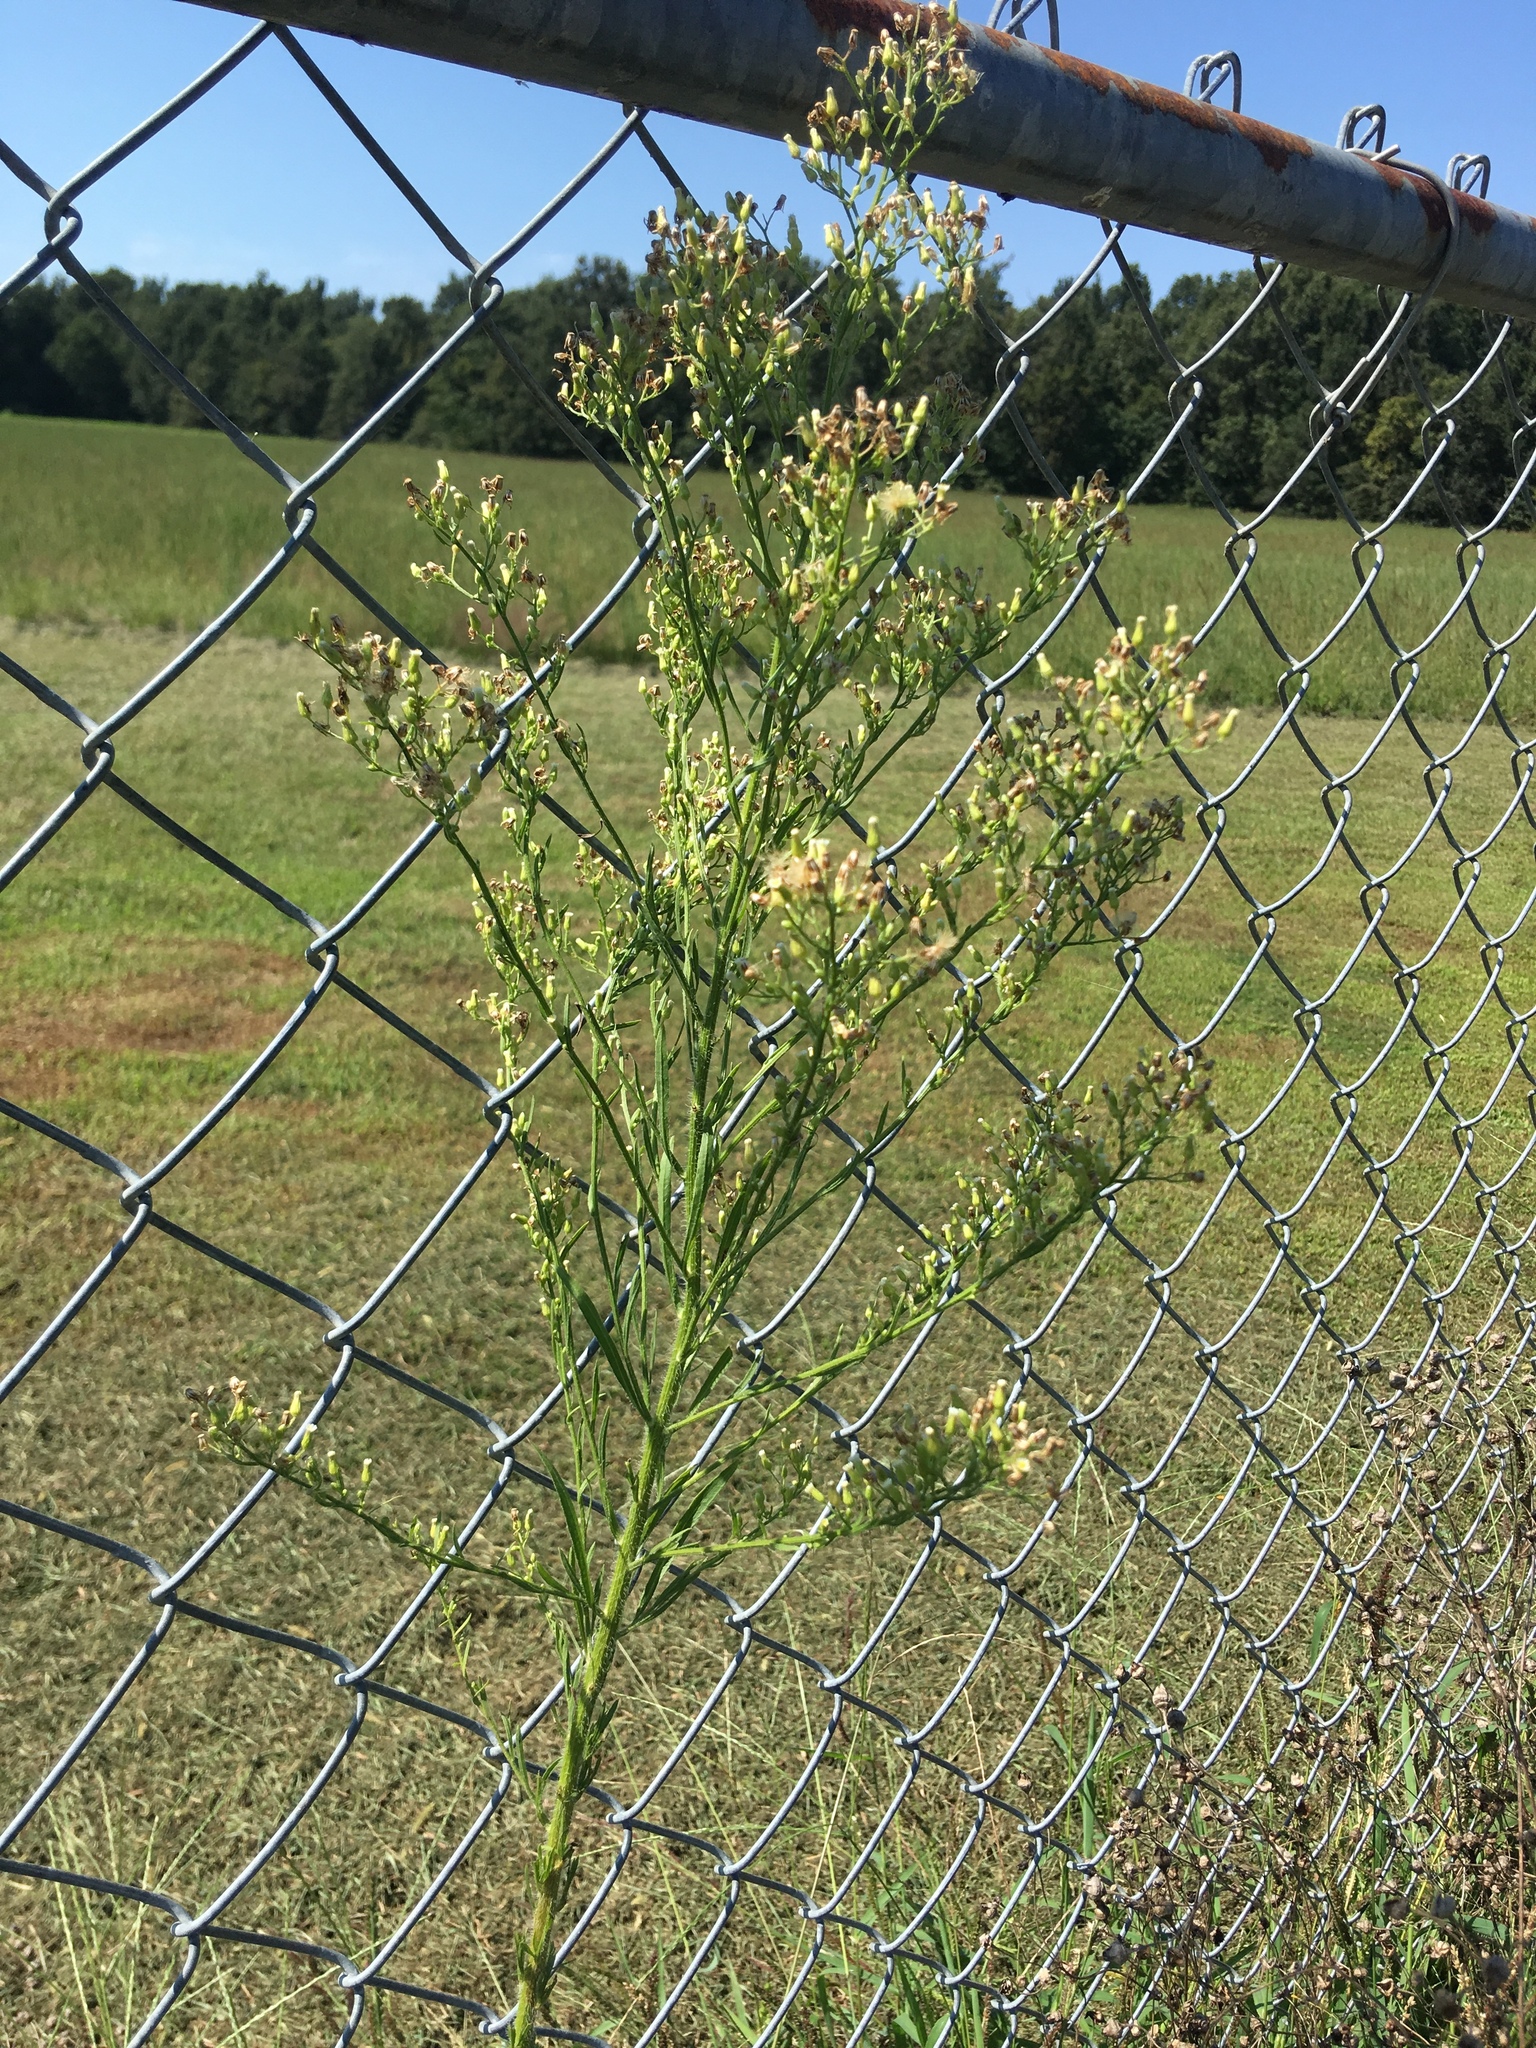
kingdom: Plantae
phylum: Tracheophyta
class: Magnoliopsida
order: Asterales
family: Asteraceae
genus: Erigeron
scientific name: Erigeron canadensis
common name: Canadian fleabane
